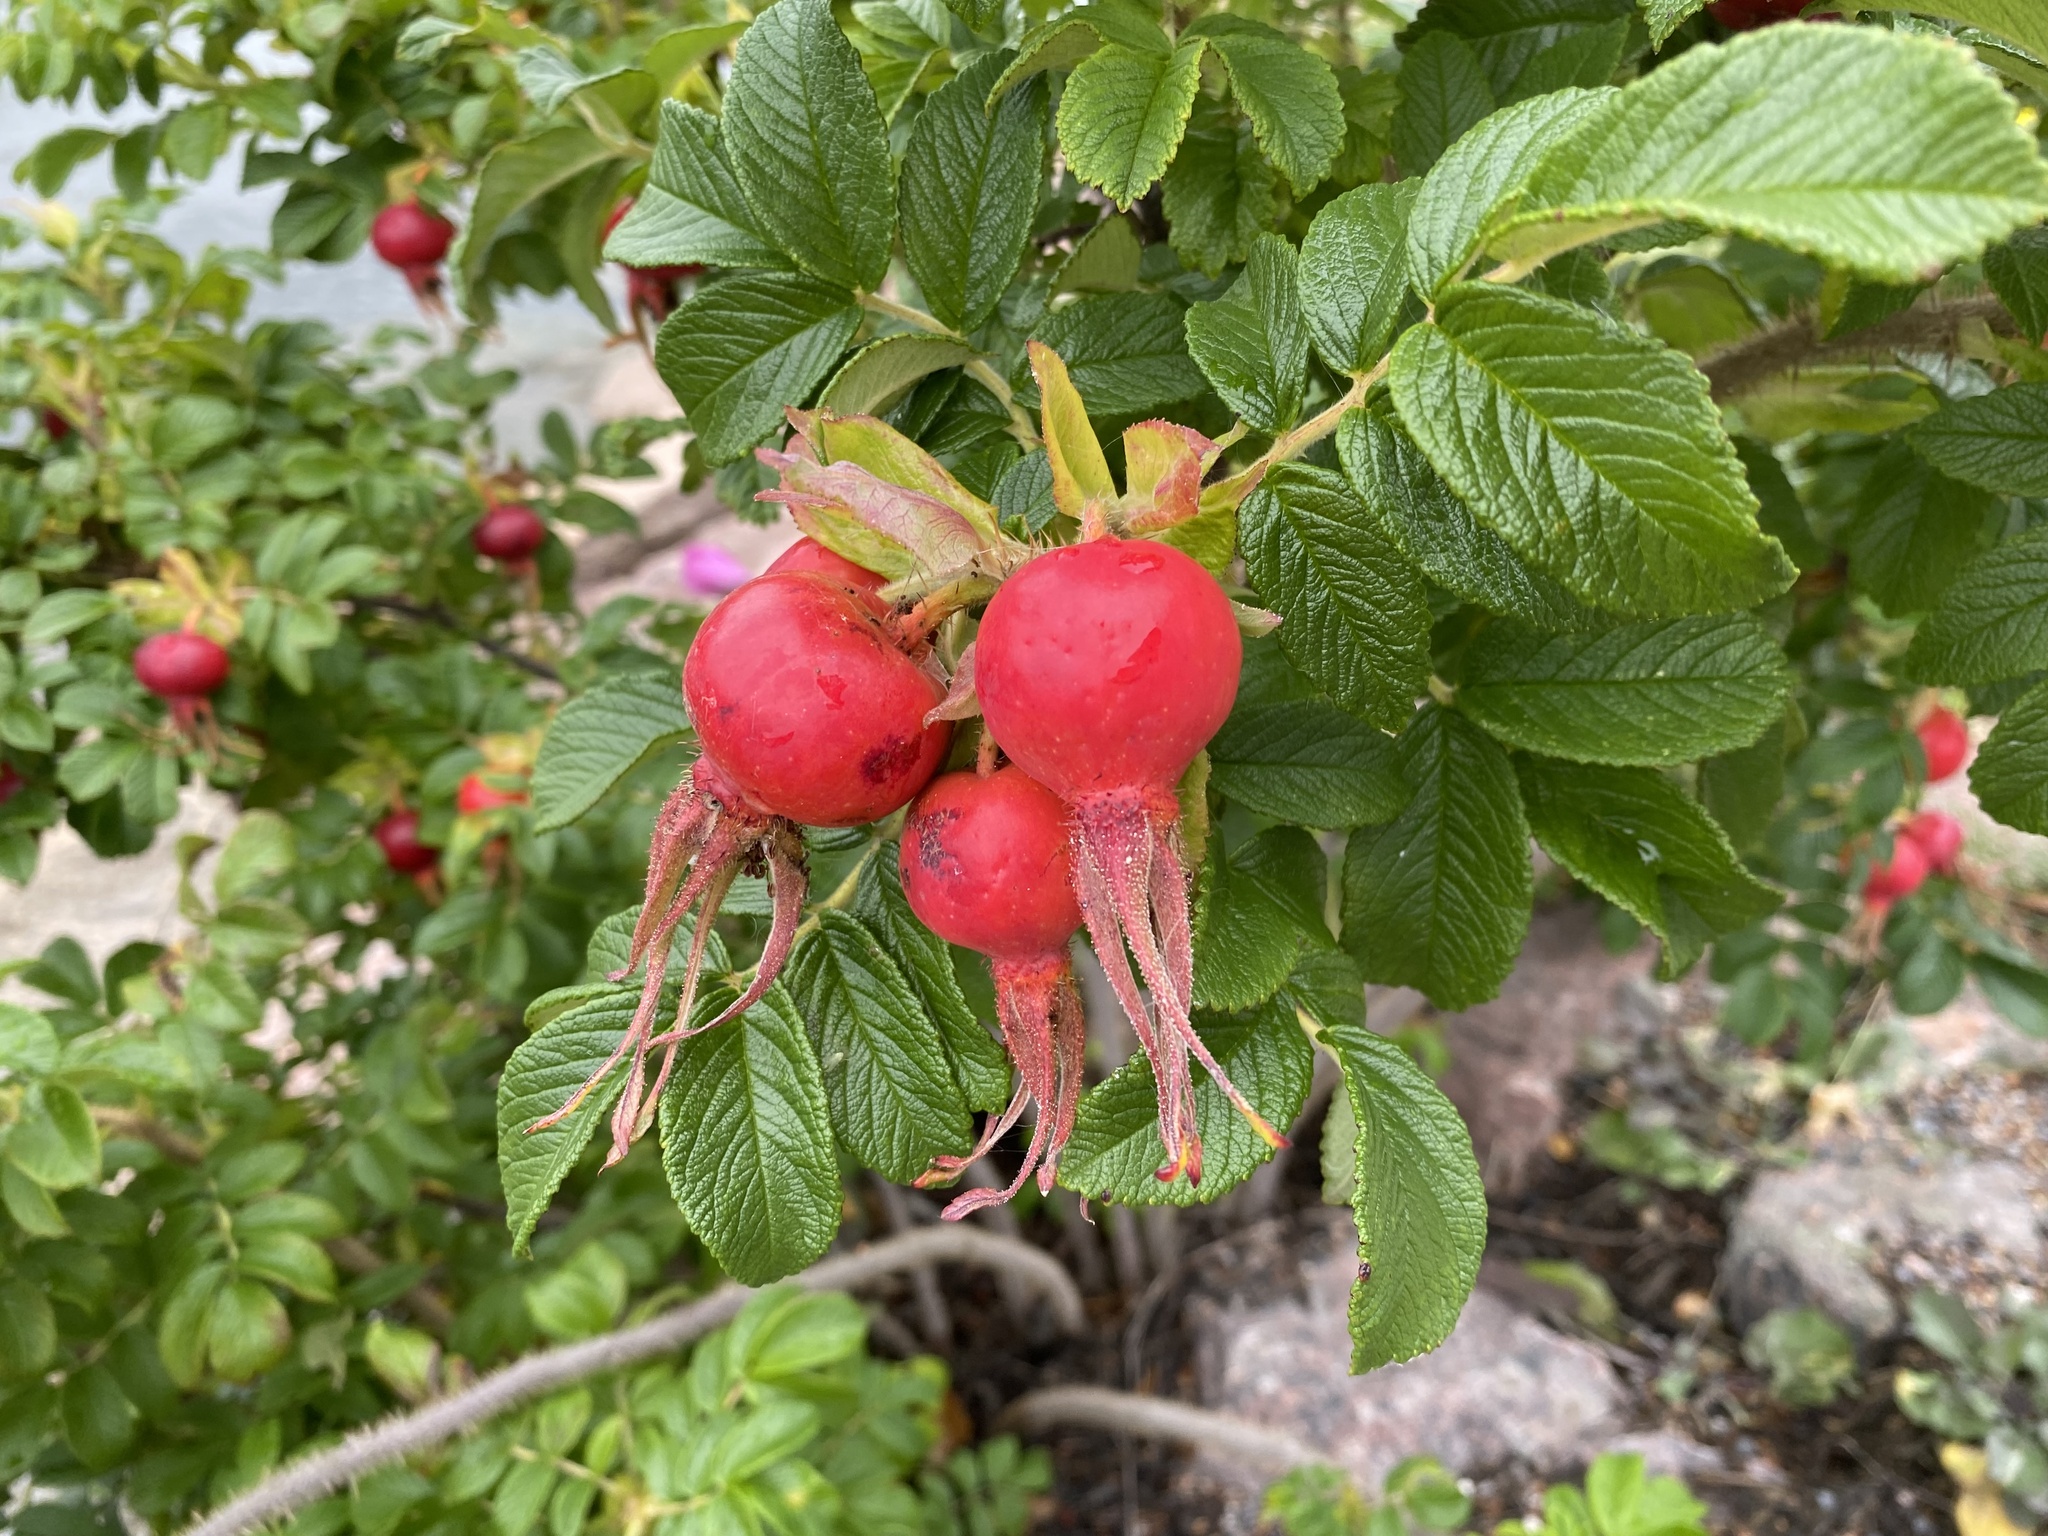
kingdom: Plantae
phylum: Tracheophyta
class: Magnoliopsida
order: Rosales
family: Rosaceae
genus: Rosa
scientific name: Rosa rugosa
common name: Japanese rose
